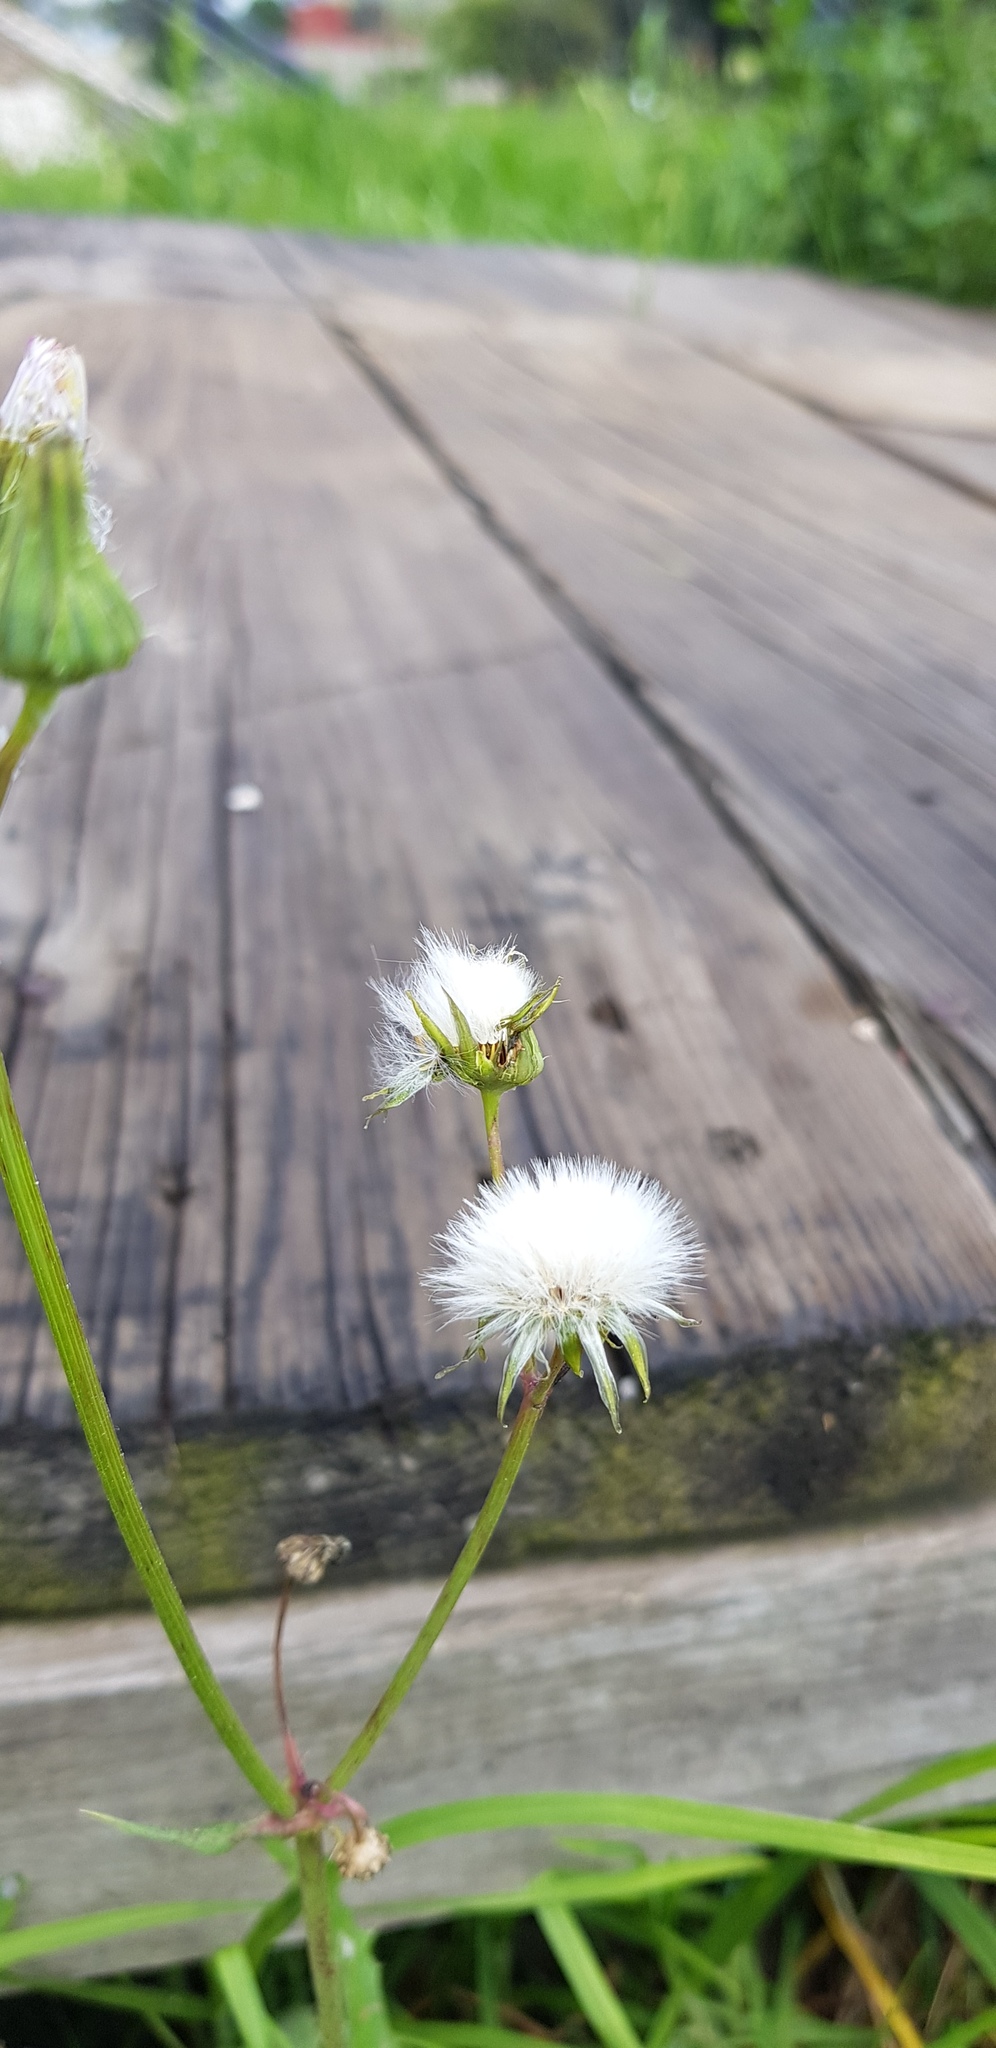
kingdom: Plantae
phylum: Tracheophyta
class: Magnoliopsida
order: Asterales
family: Asteraceae
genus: Sonchus
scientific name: Sonchus oleraceus
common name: Common sowthistle
